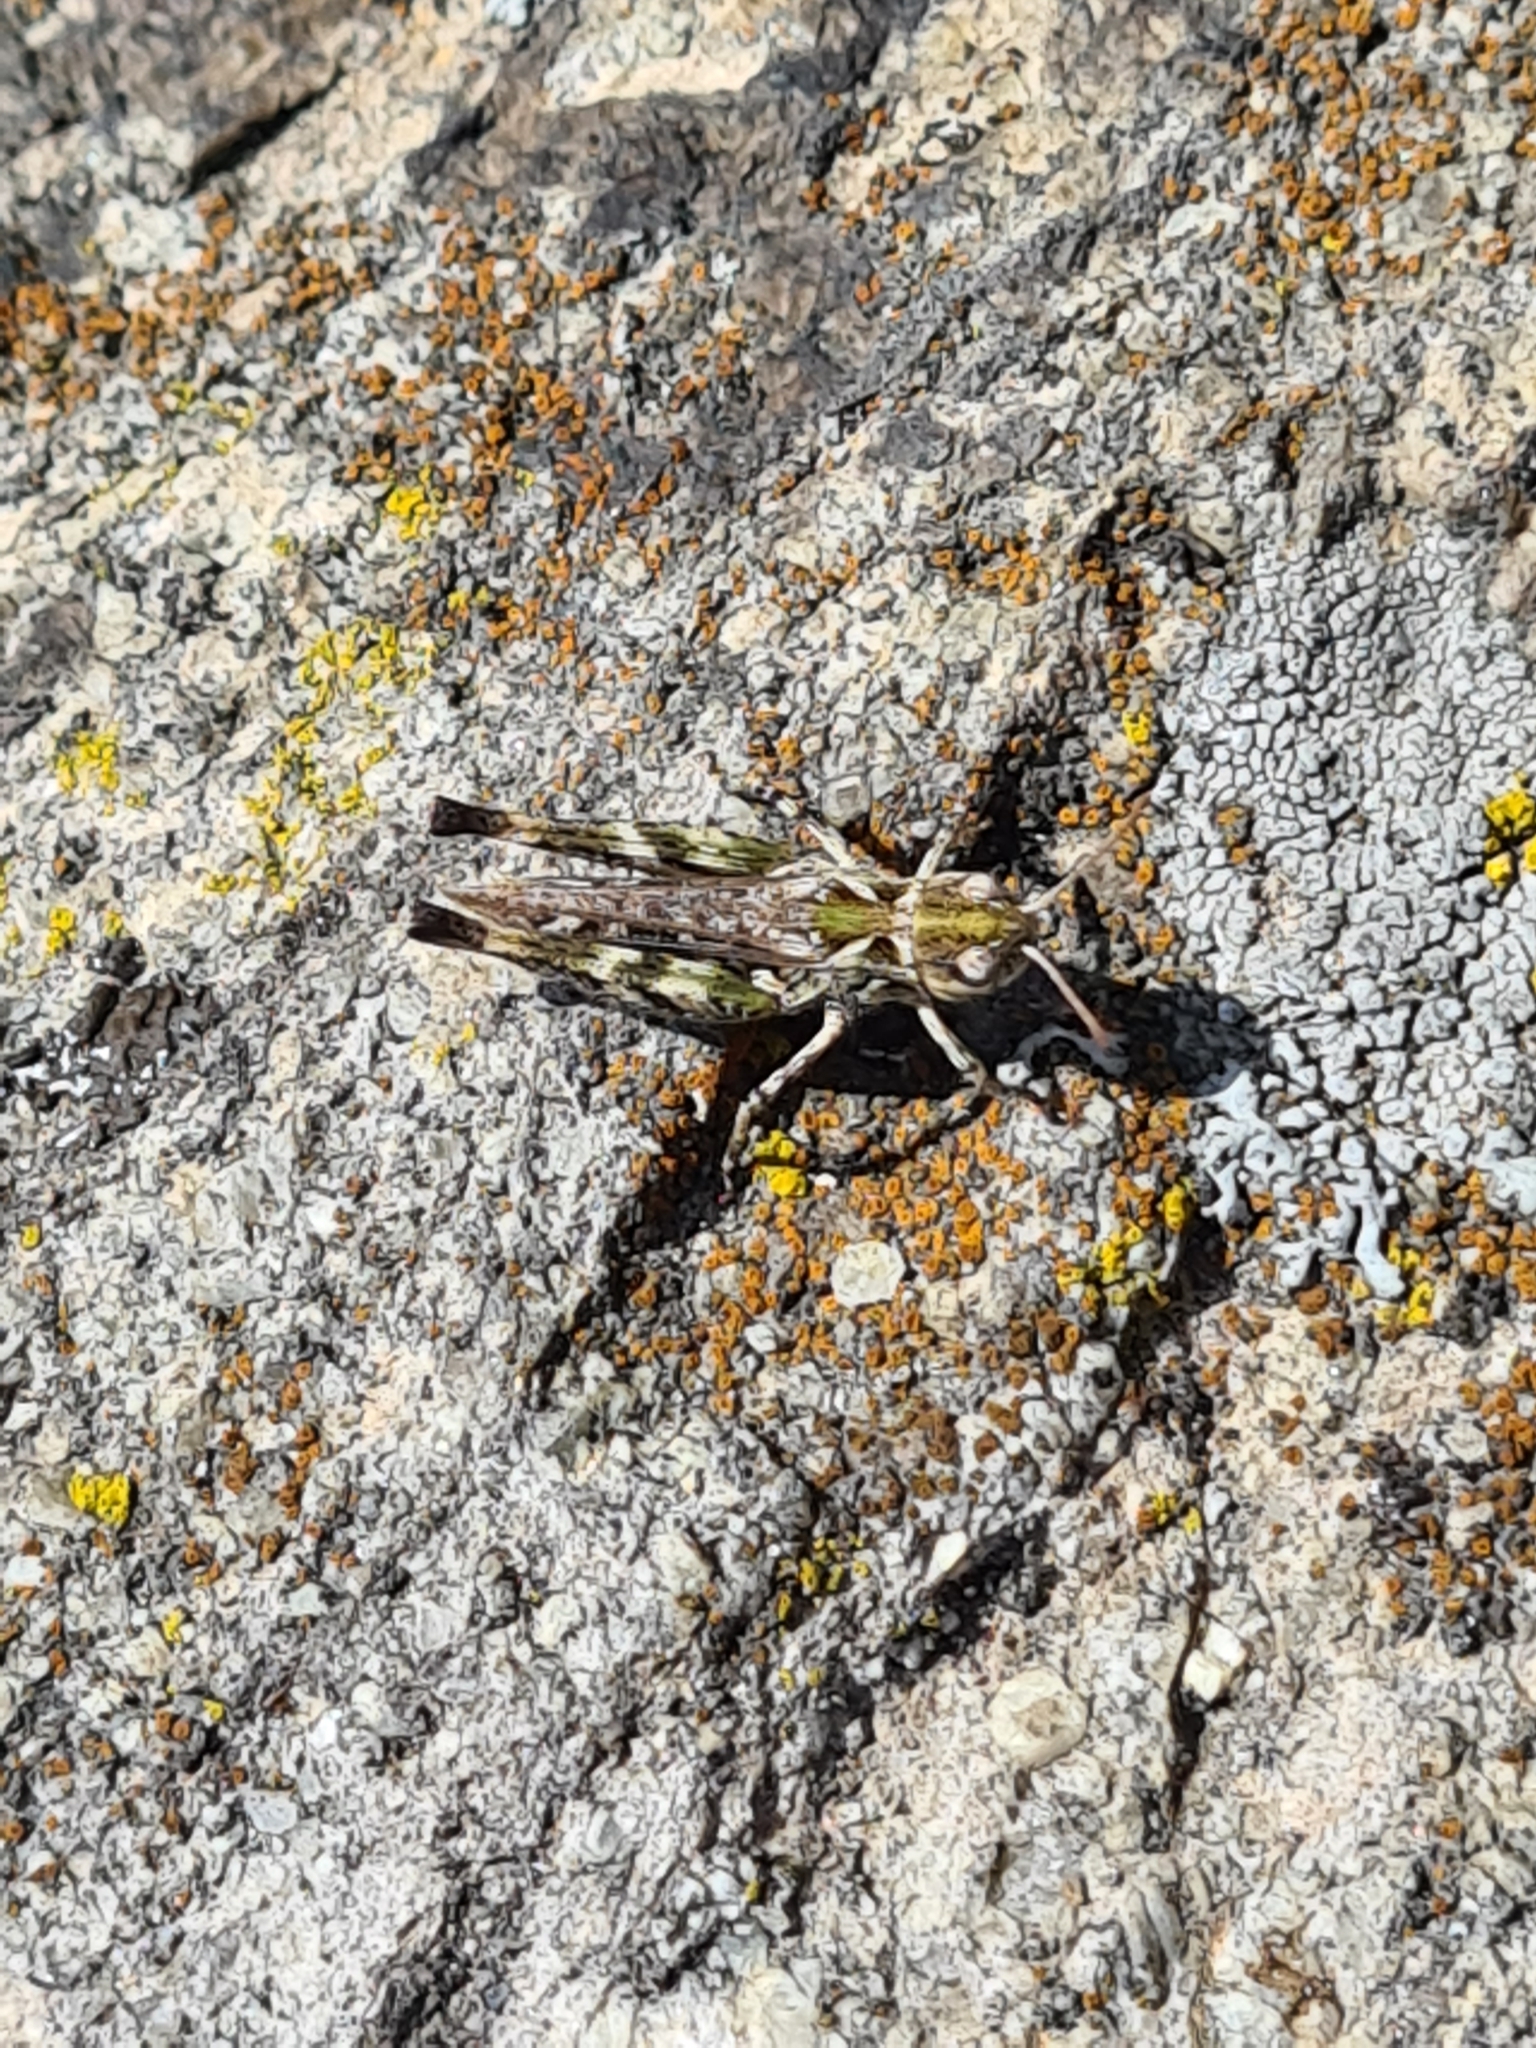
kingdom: Animalia
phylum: Arthropoda
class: Insecta
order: Orthoptera
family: Acrididae
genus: Myrmeleotettix
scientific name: Myrmeleotettix maculatus
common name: Mottled grasshopper
